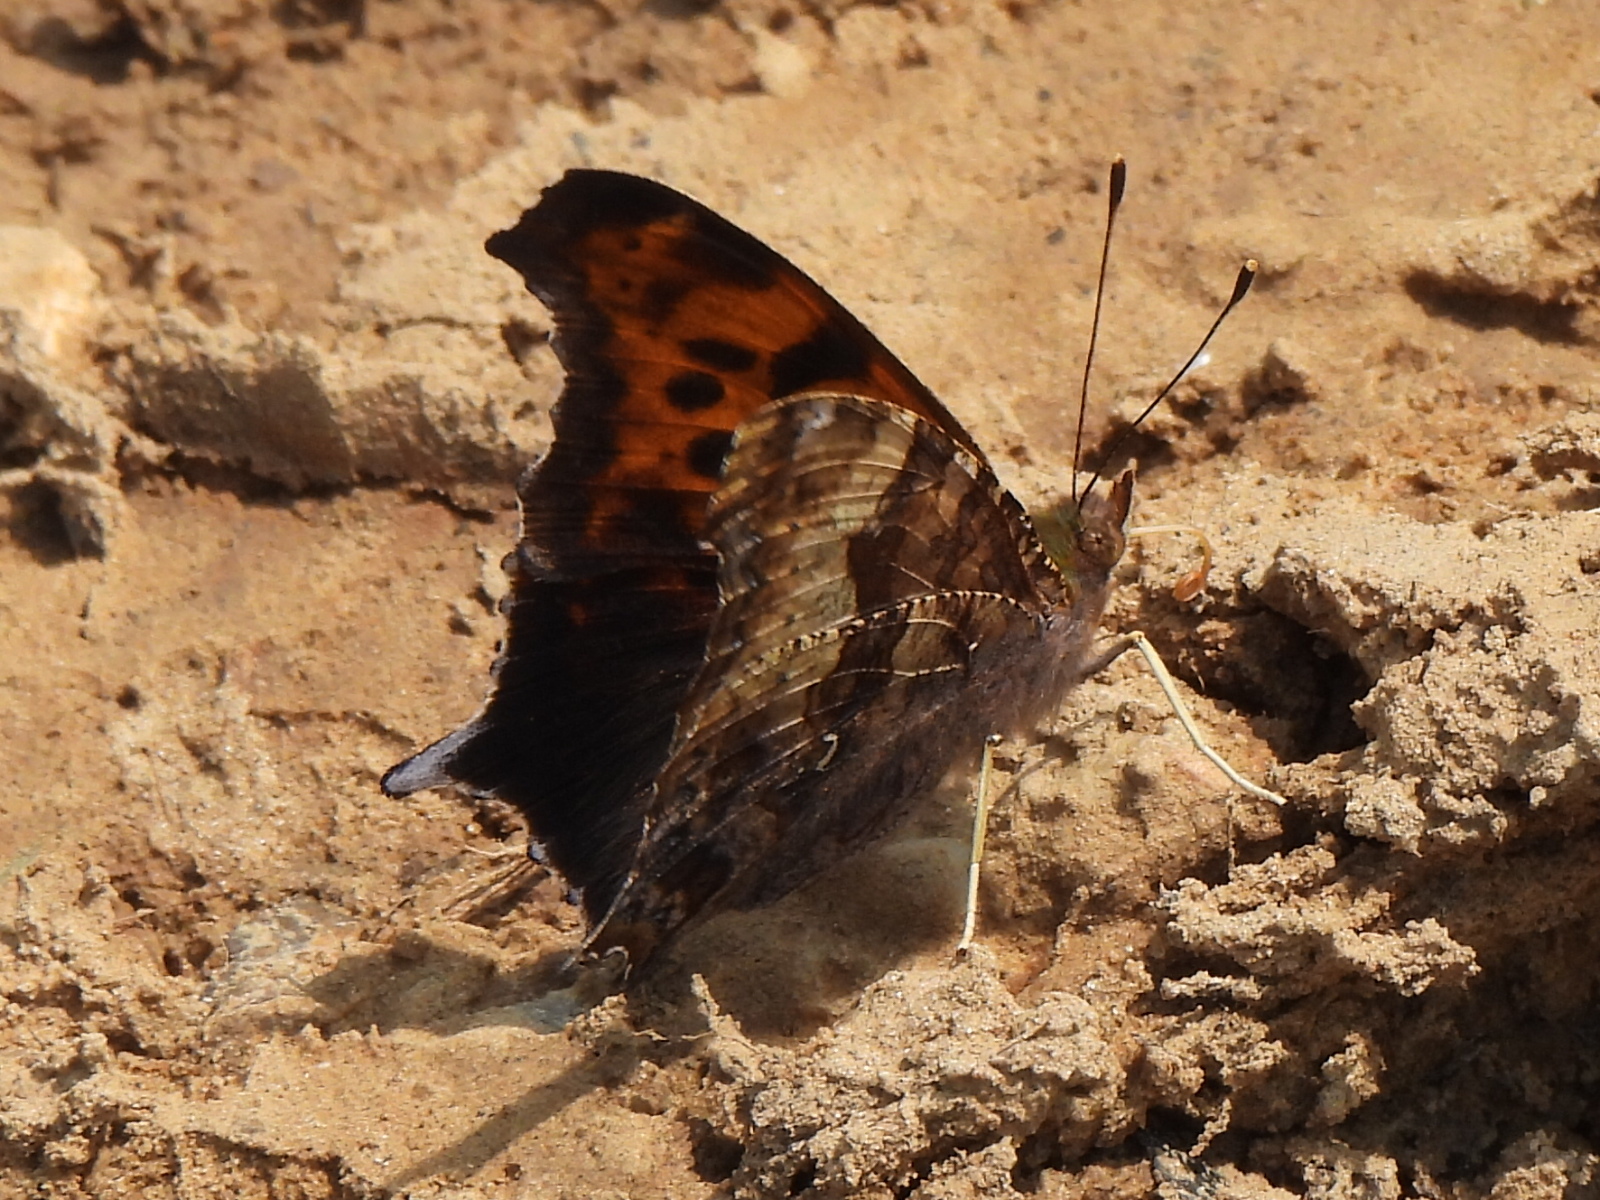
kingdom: Animalia
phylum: Arthropoda
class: Insecta
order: Lepidoptera
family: Nymphalidae
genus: Polygonia
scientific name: Polygonia interrogationis
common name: Question mark
